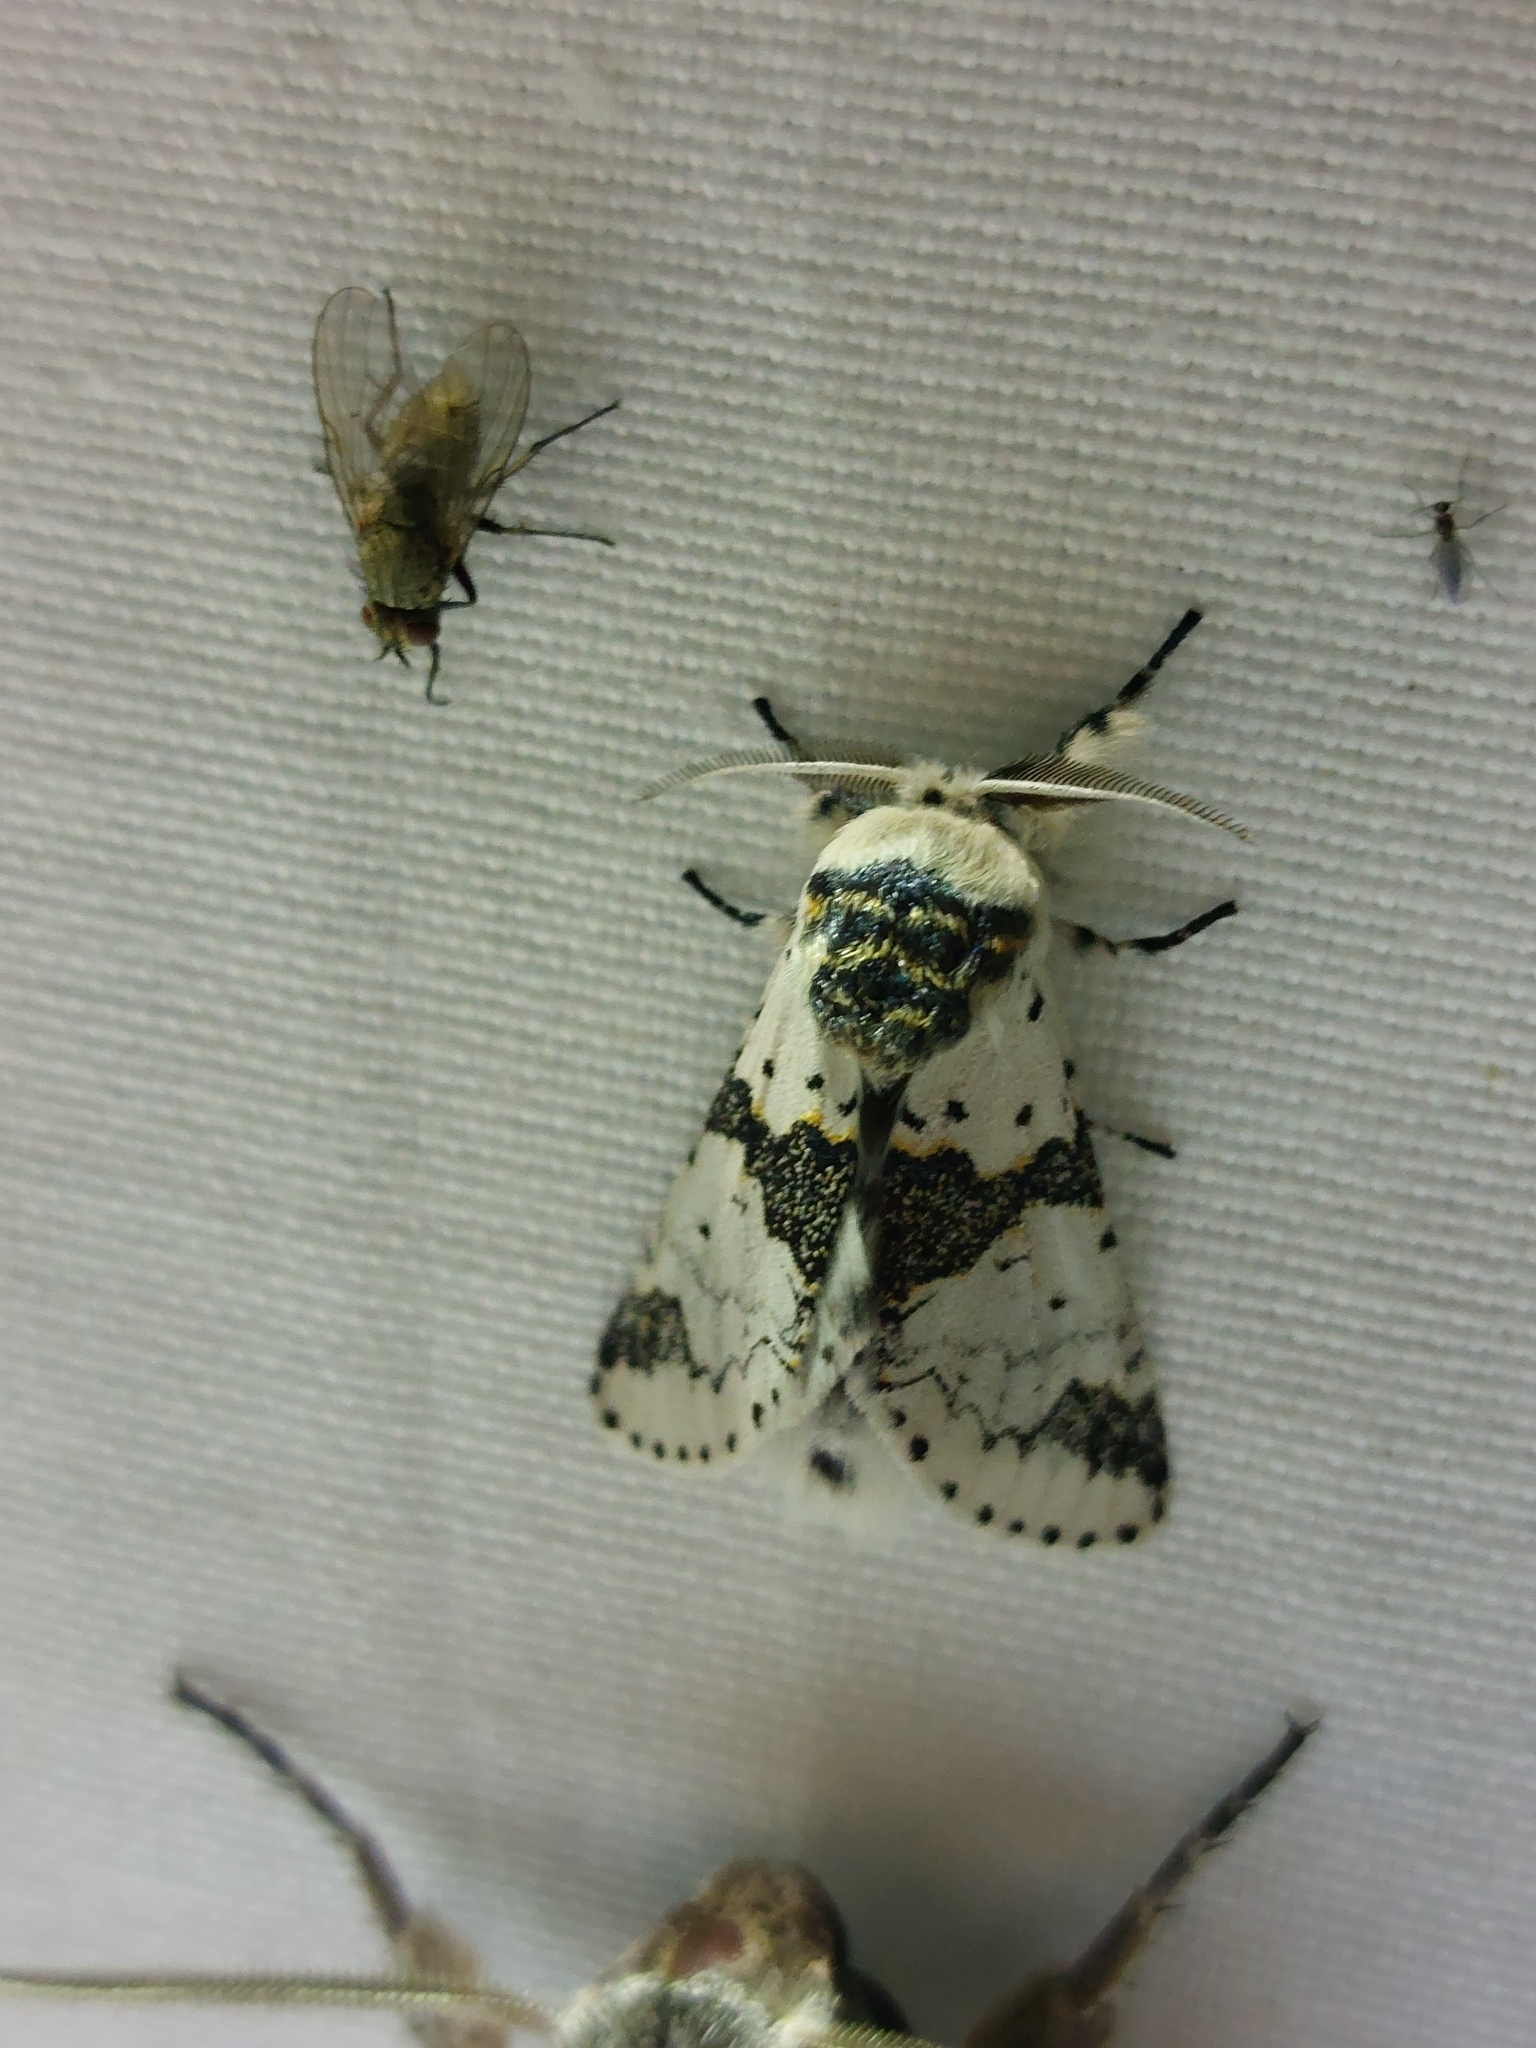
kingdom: Animalia
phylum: Arthropoda
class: Insecta
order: Lepidoptera
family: Notodontidae
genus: Furcula
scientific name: Furcula bicuspis
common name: Alder kitten
